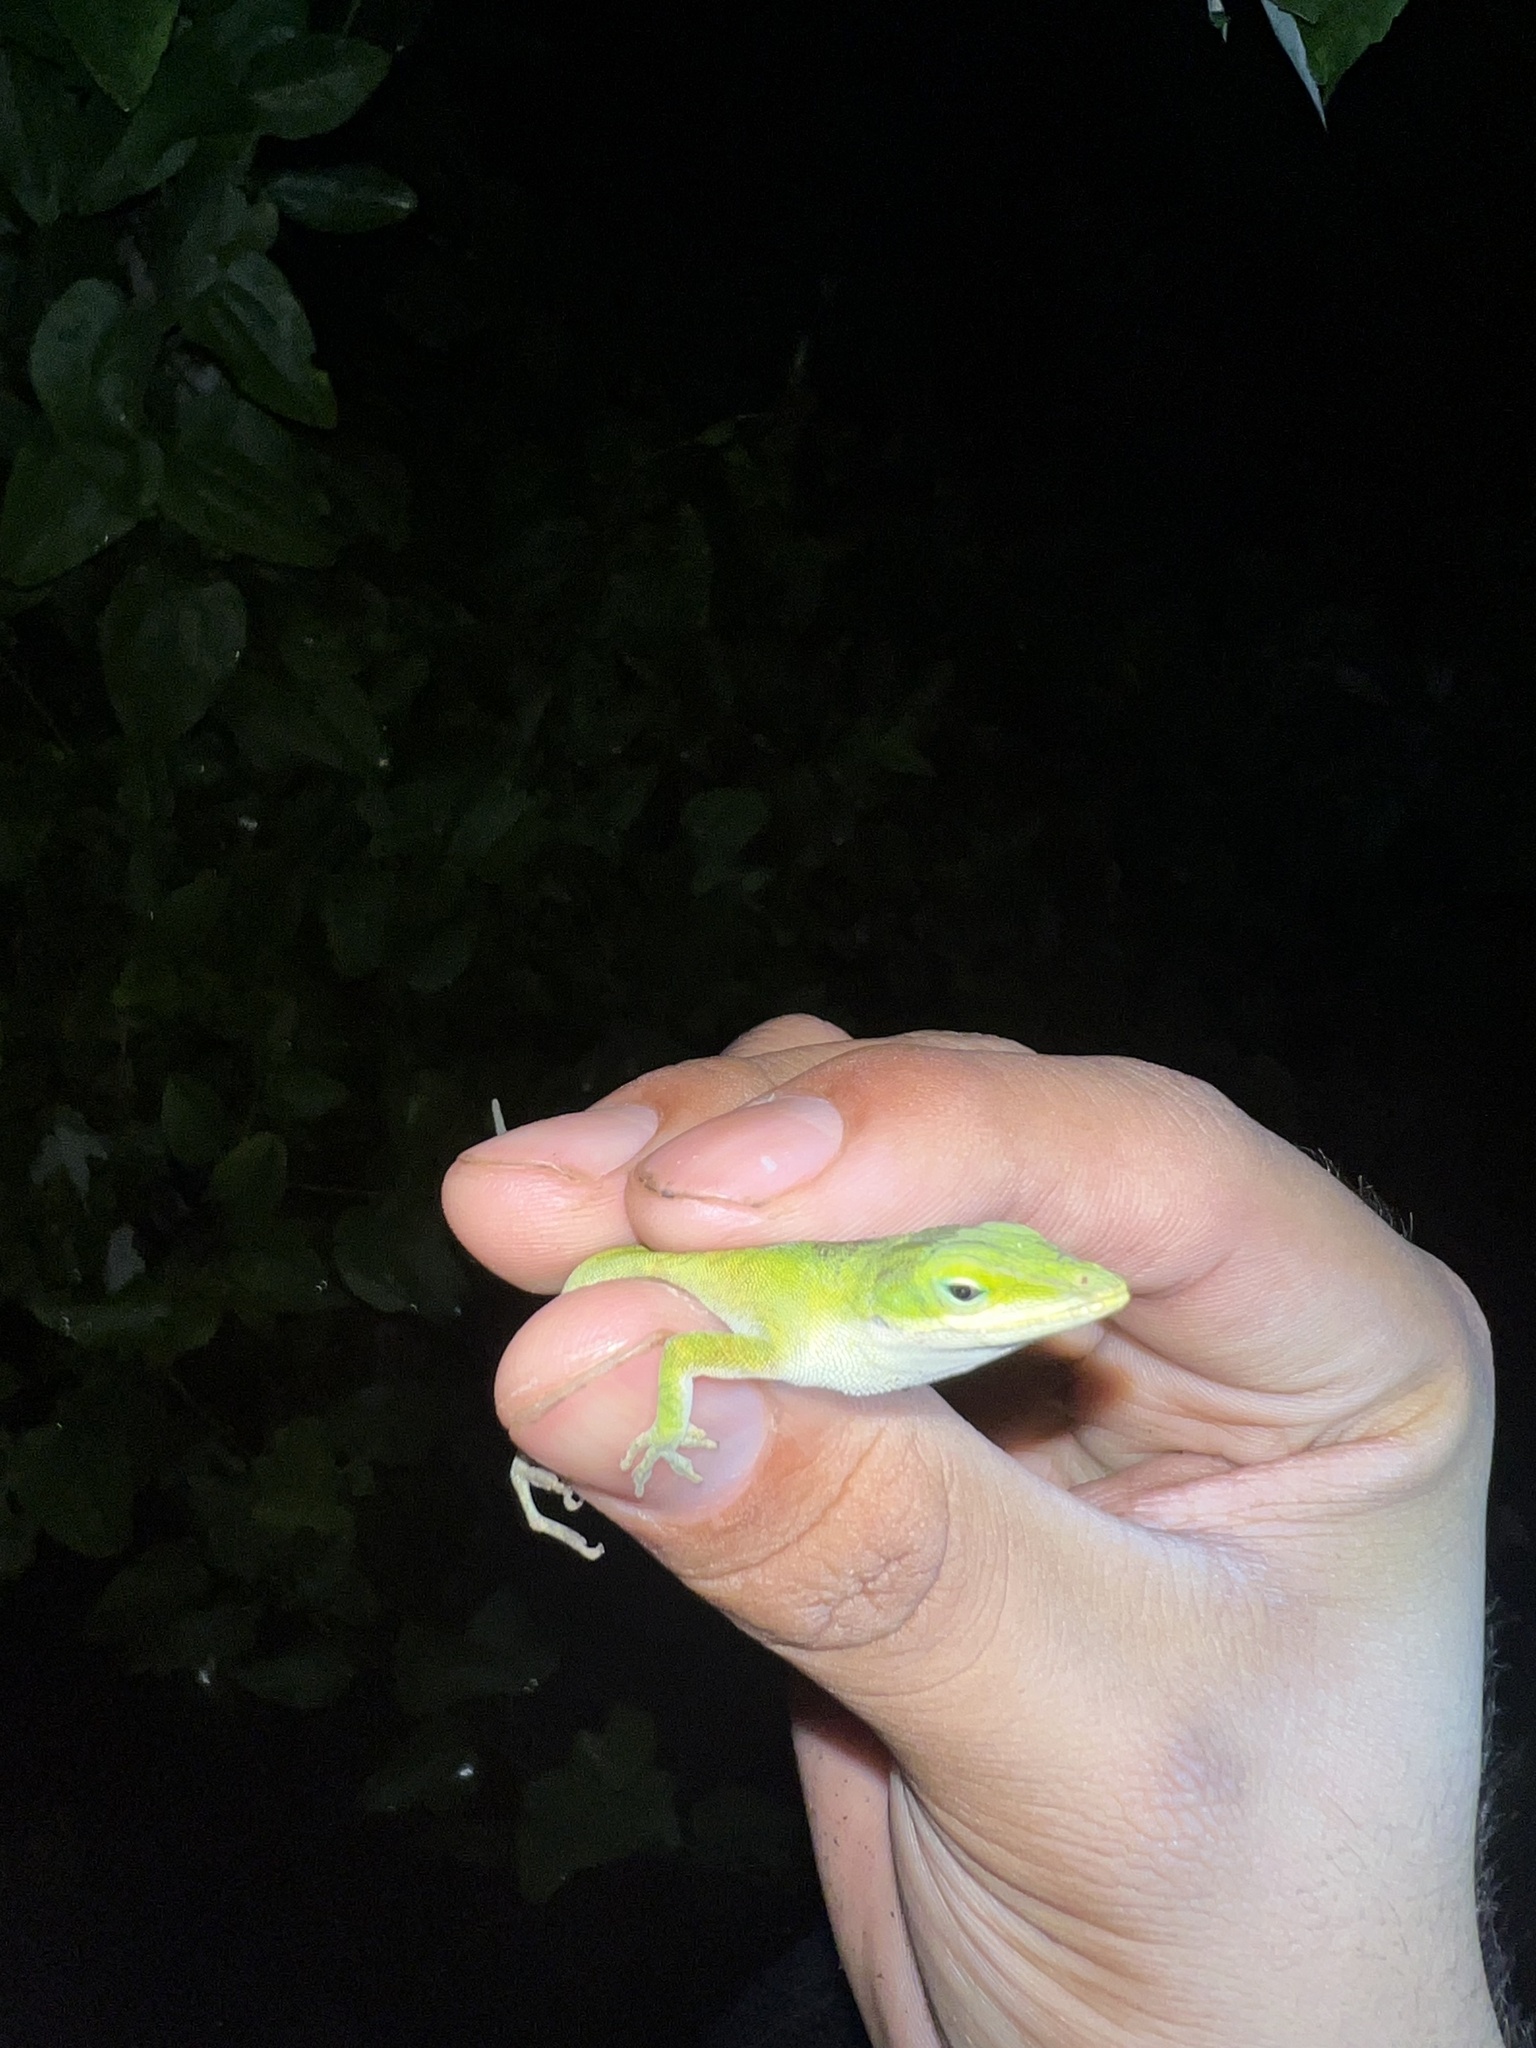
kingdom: Animalia
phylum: Chordata
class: Squamata
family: Dactyloidae
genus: Anolis
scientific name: Anolis carolinensis
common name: Green anole
